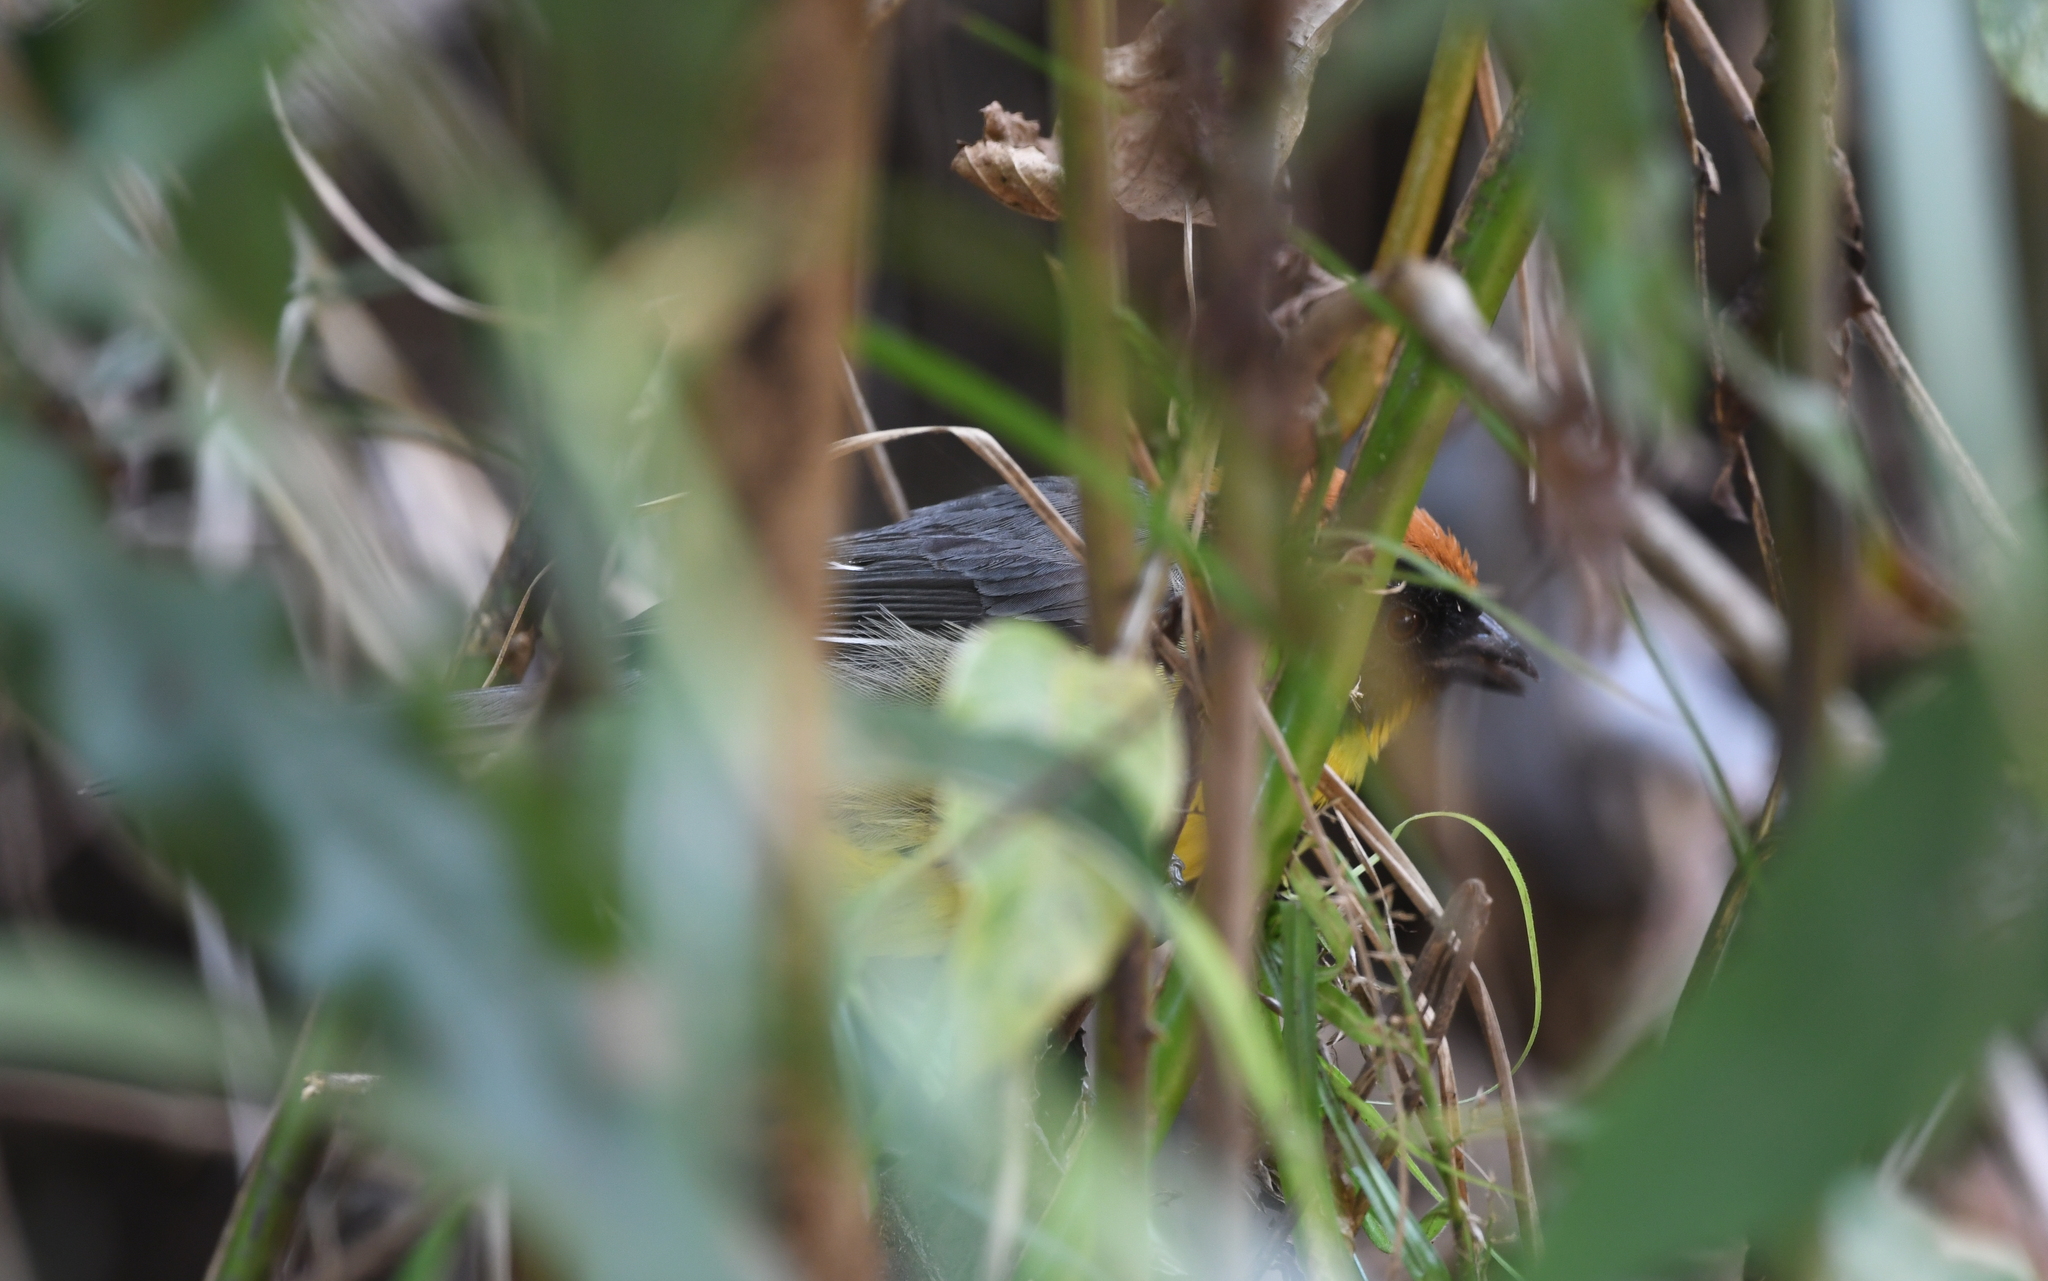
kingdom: Animalia
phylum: Chordata
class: Aves
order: Passeriformes
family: Passerellidae
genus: Atlapetes
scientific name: Atlapetes nigrifrons
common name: Black-fronted brushfinch
